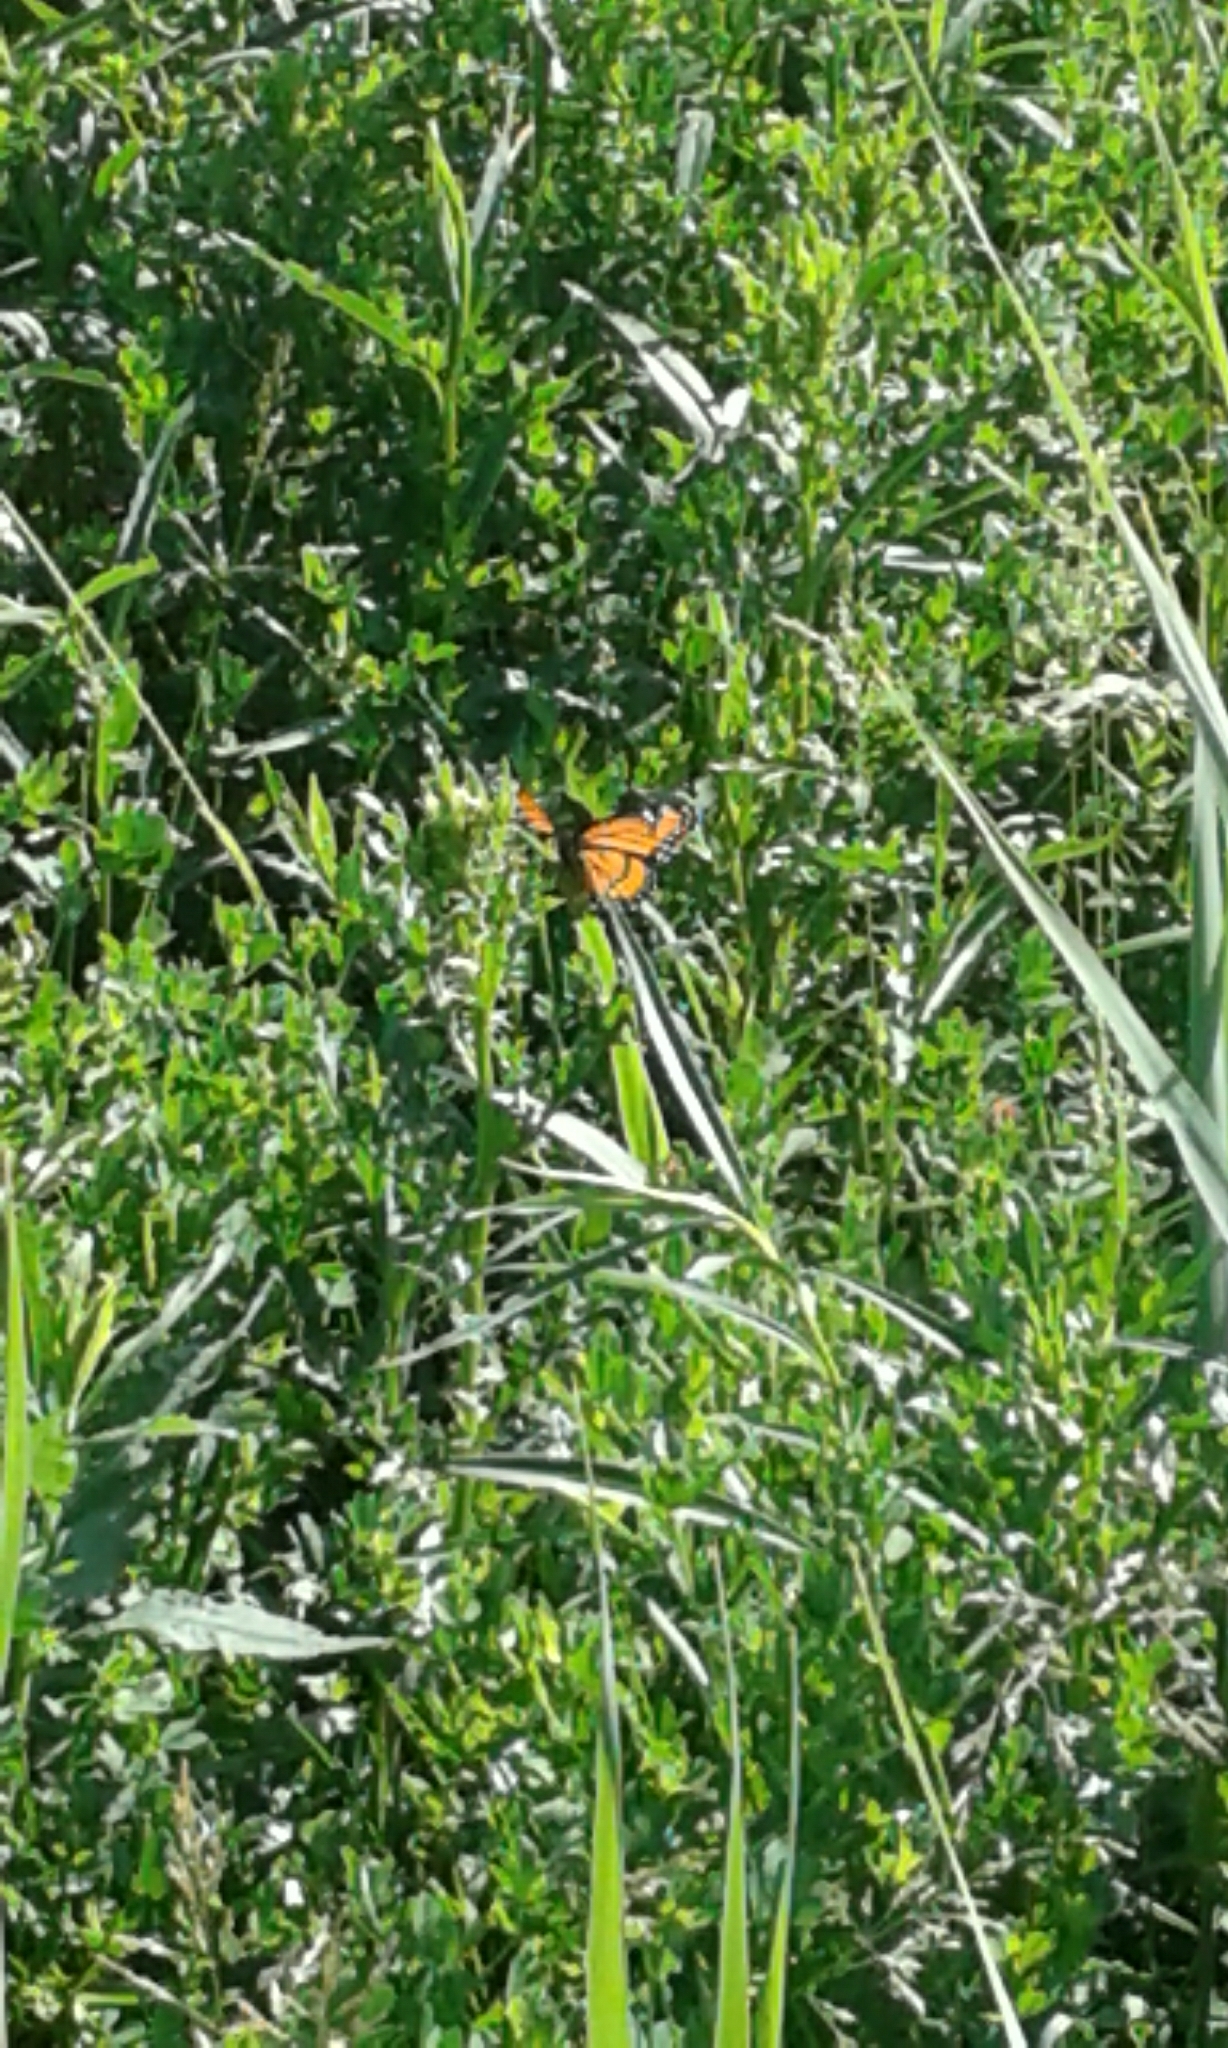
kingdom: Animalia
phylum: Arthropoda
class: Insecta
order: Lepidoptera
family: Nymphalidae
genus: Limenitis
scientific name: Limenitis archippus
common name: Viceroy
